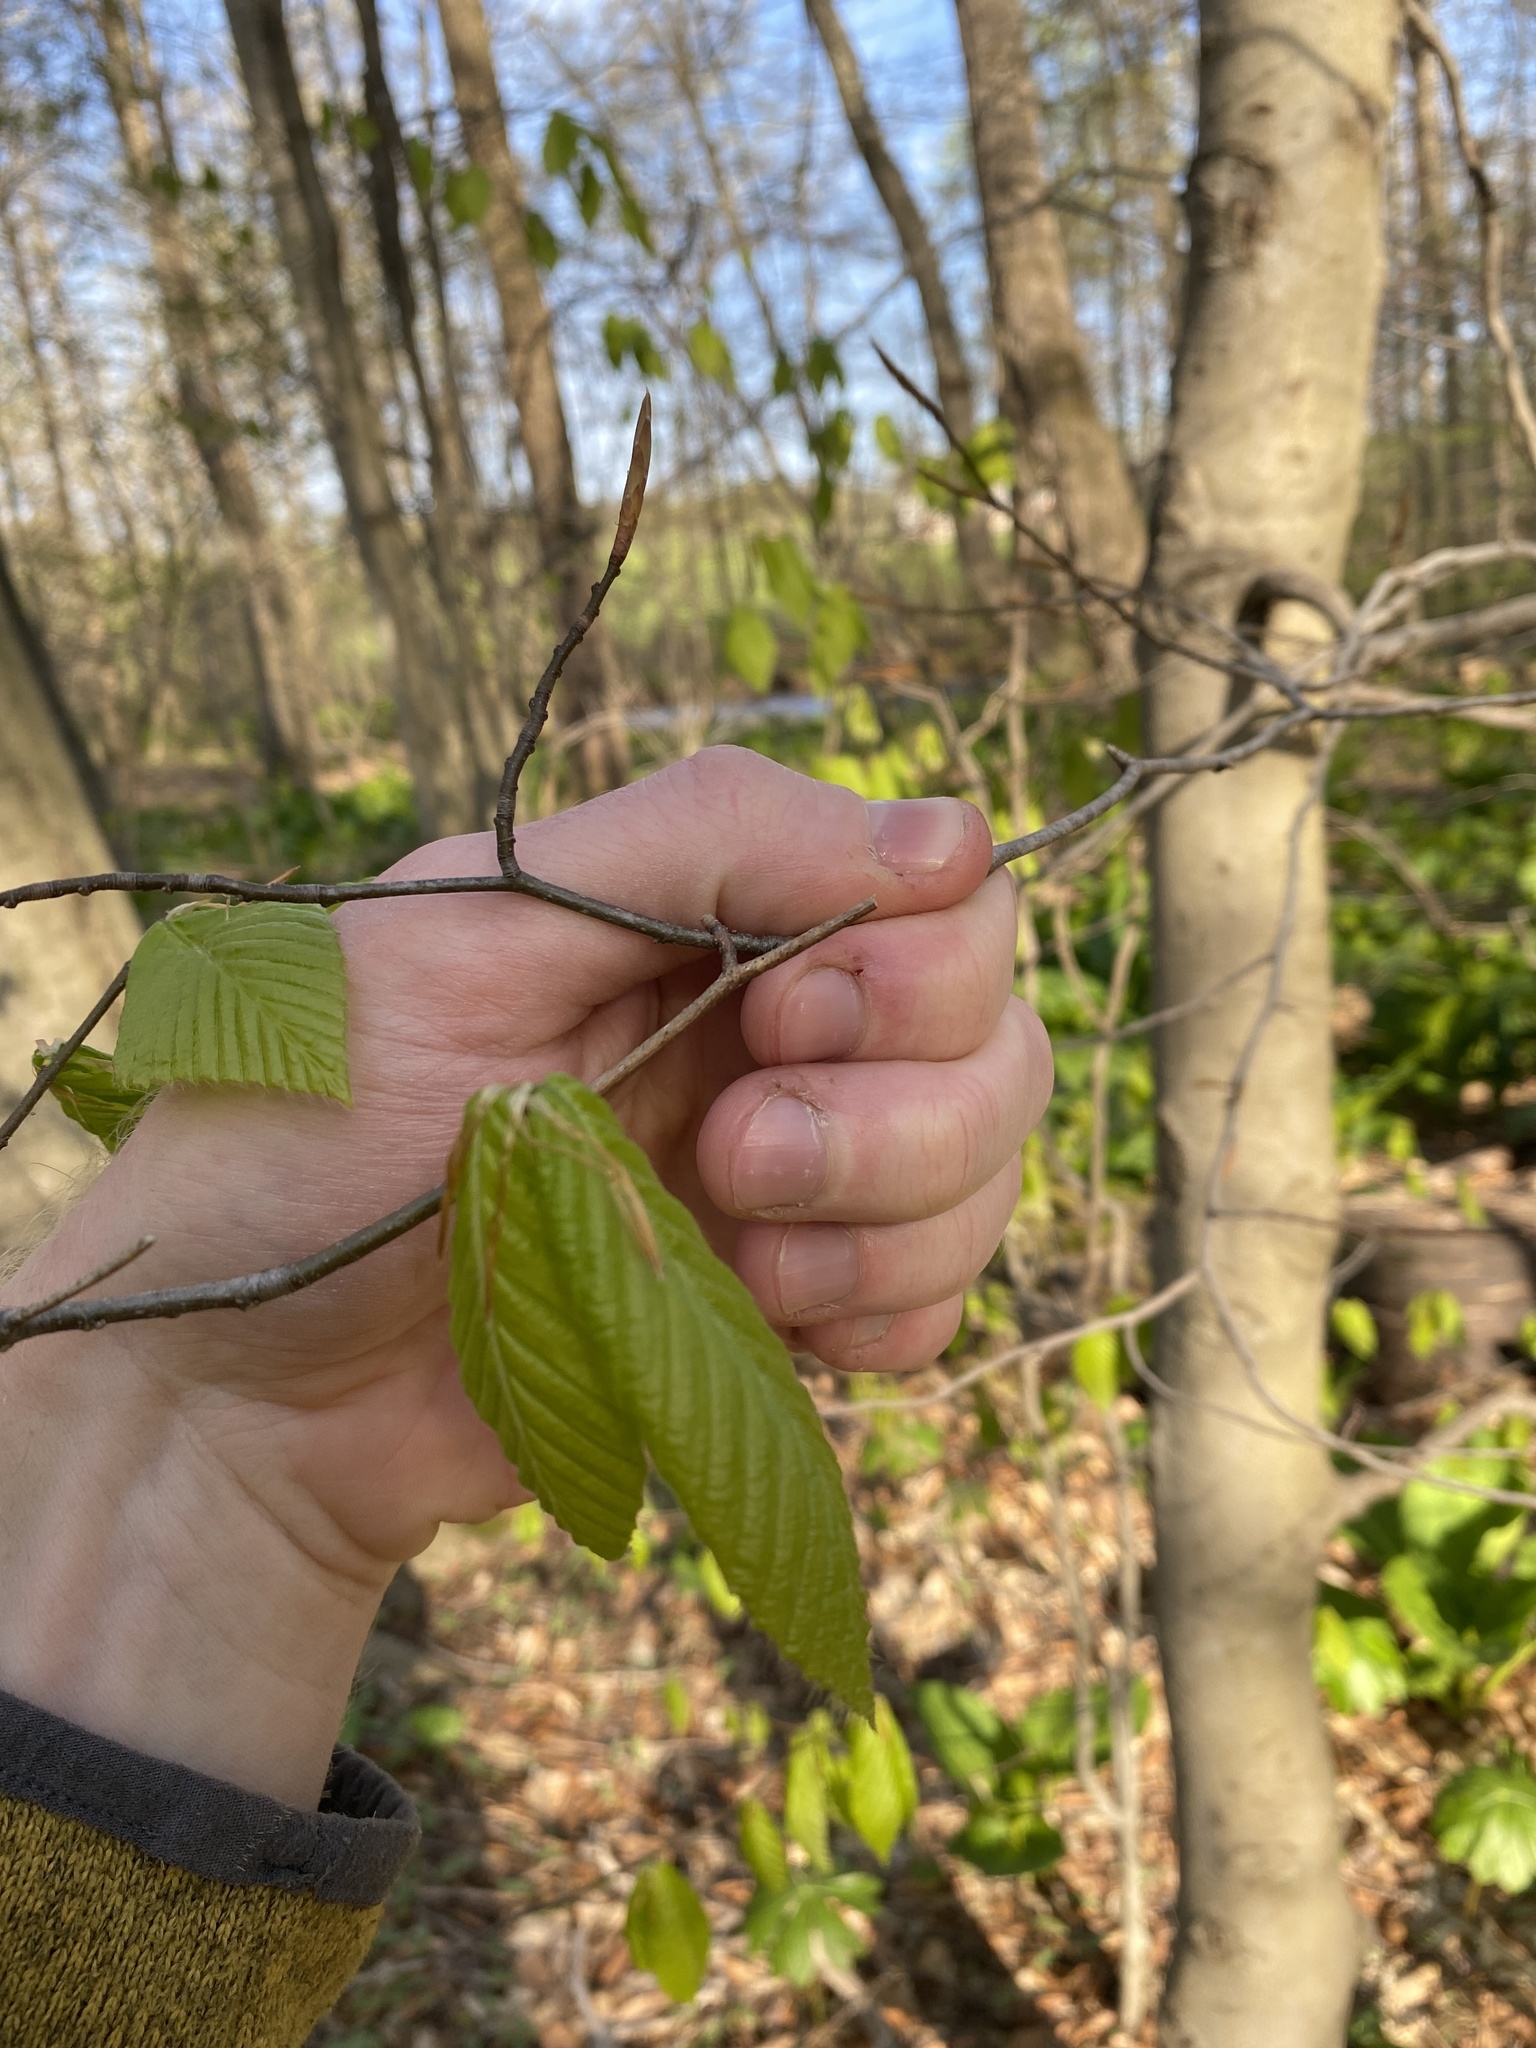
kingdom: Plantae
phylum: Tracheophyta
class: Magnoliopsida
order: Fagales
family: Fagaceae
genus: Fagus
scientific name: Fagus grandifolia
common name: American beech
